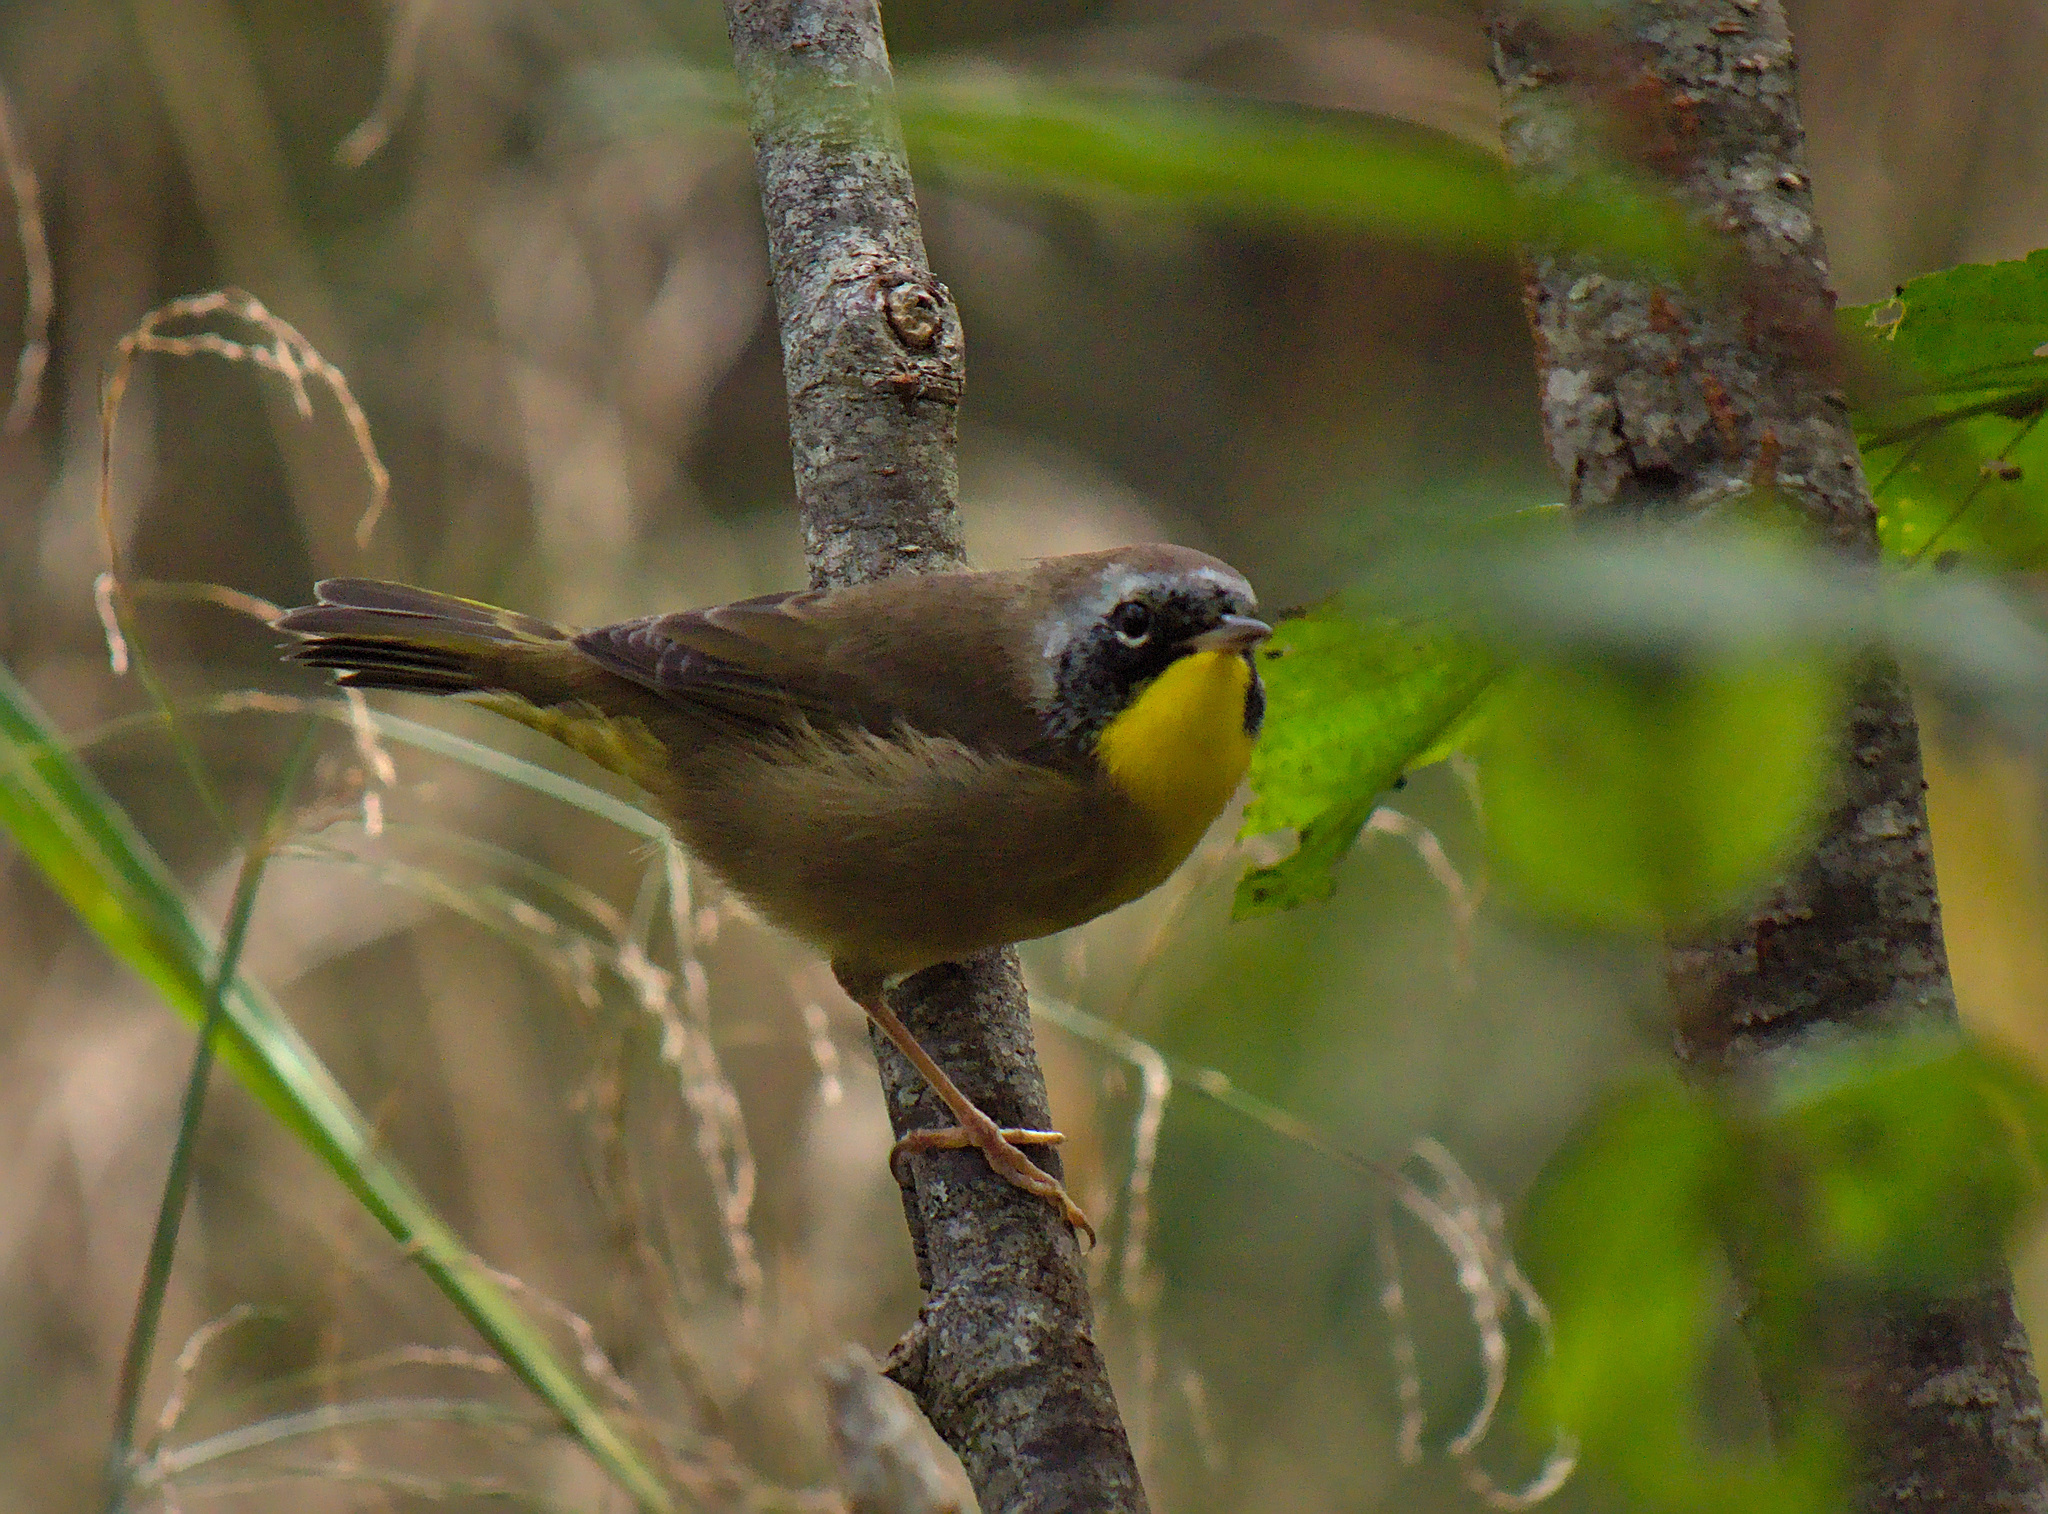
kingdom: Animalia
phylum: Chordata
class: Aves
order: Passeriformes
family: Parulidae
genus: Geothlypis
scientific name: Geothlypis trichas
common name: Common yellowthroat
